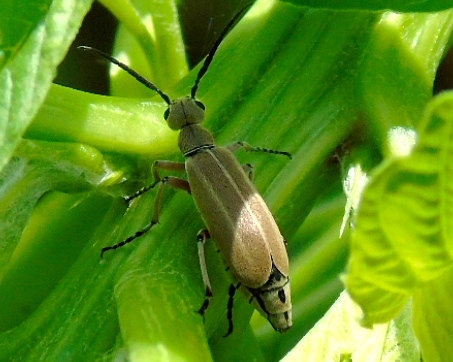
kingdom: Animalia
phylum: Arthropoda
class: Insecta
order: Coleoptera
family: Meloidae
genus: Epicauta
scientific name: Epicauta cupraeola
